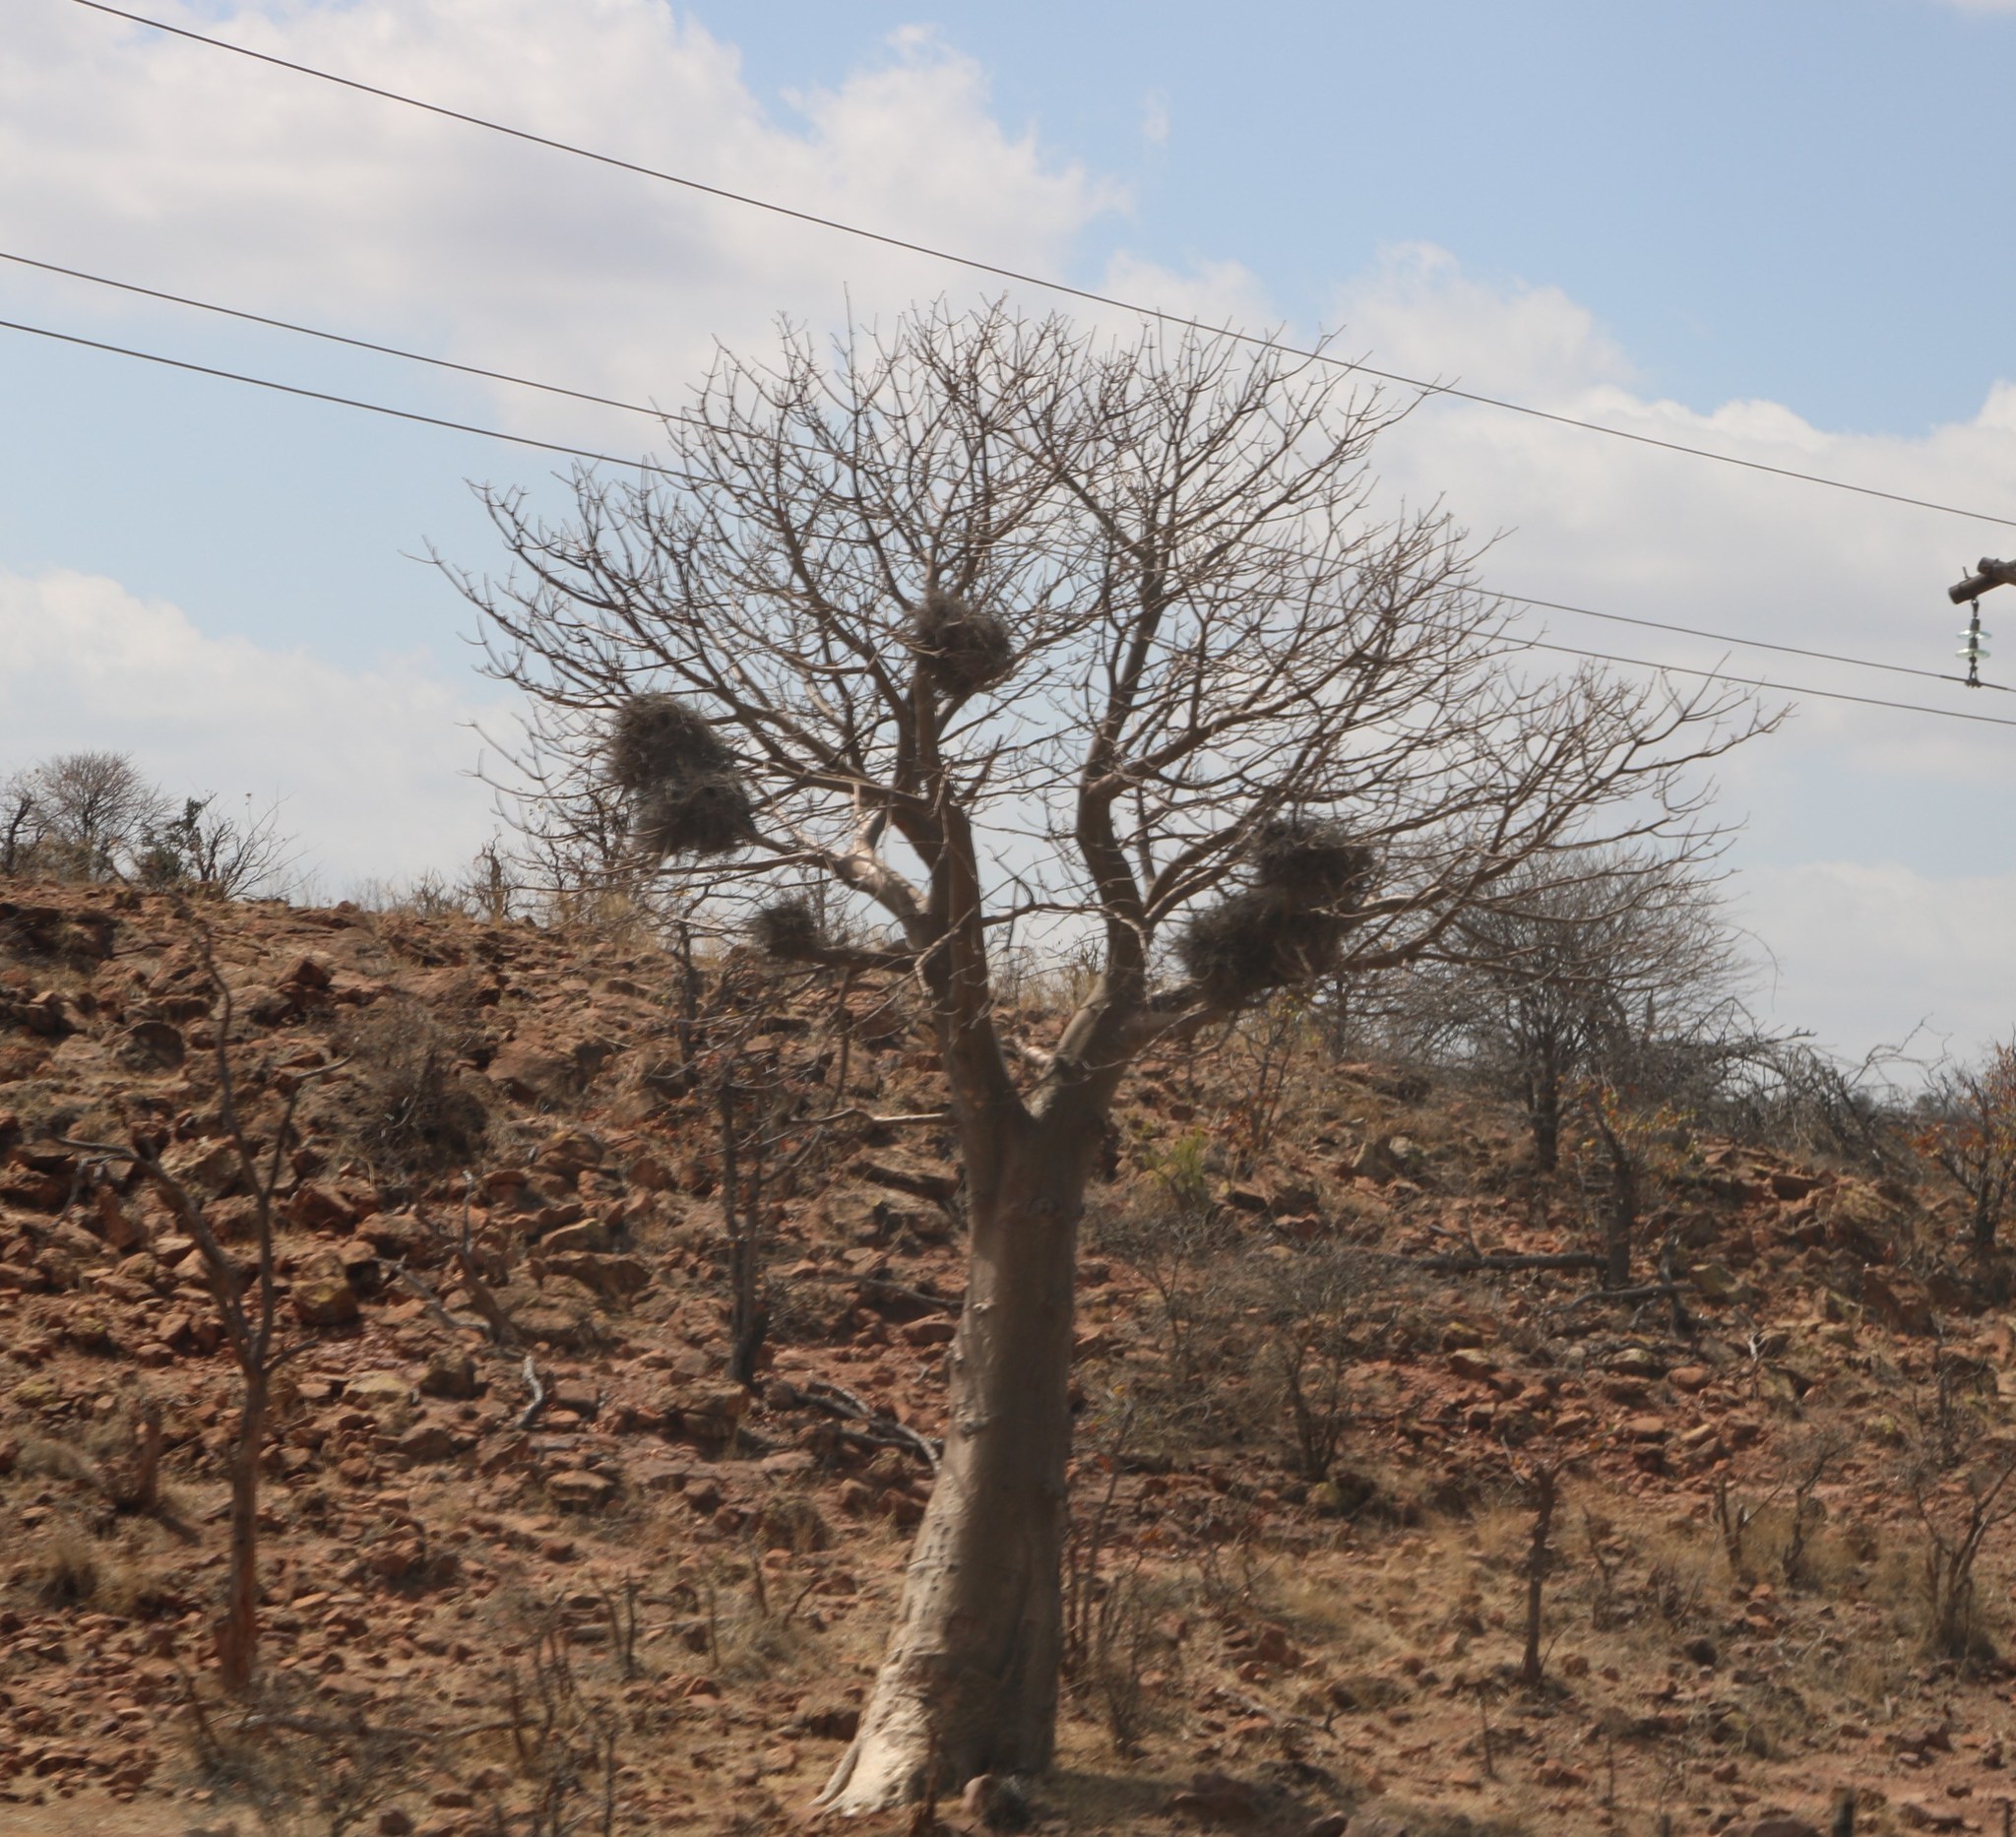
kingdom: Plantae
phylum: Tracheophyta
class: Magnoliopsida
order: Malvales
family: Malvaceae
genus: Adansonia
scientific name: Adansonia digitata
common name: Dead-rat-tree
